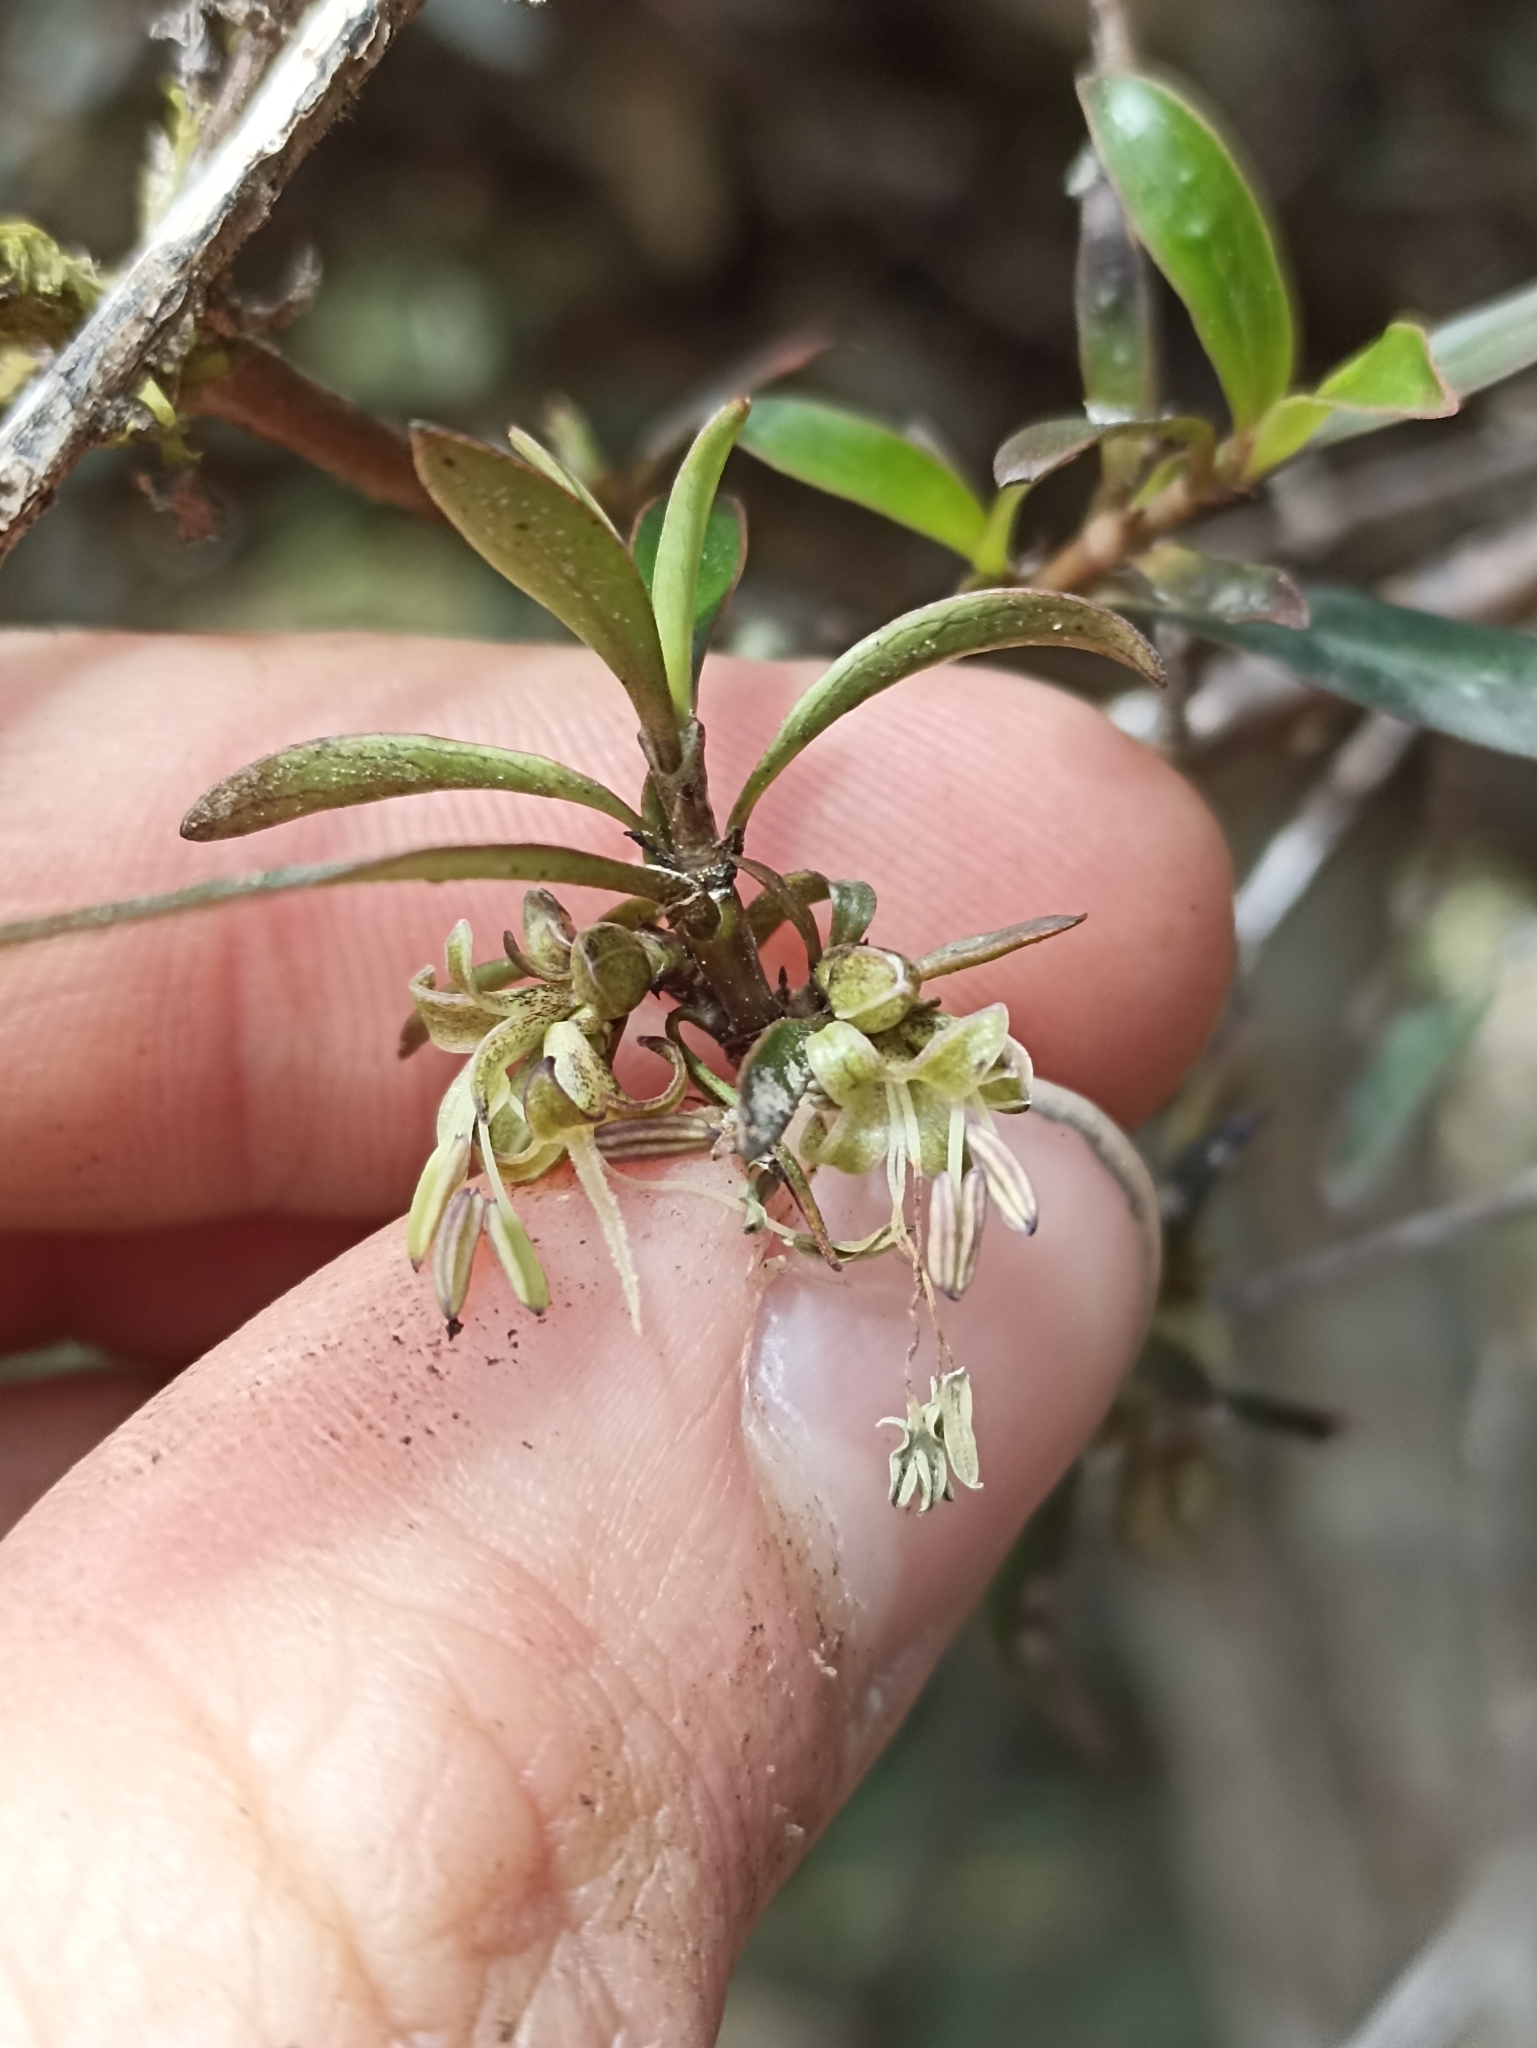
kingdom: Plantae
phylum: Tracheophyta
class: Magnoliopsida
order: Gentianales
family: Rubiaceae
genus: Coprosma
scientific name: Coprosma cunninghamii
